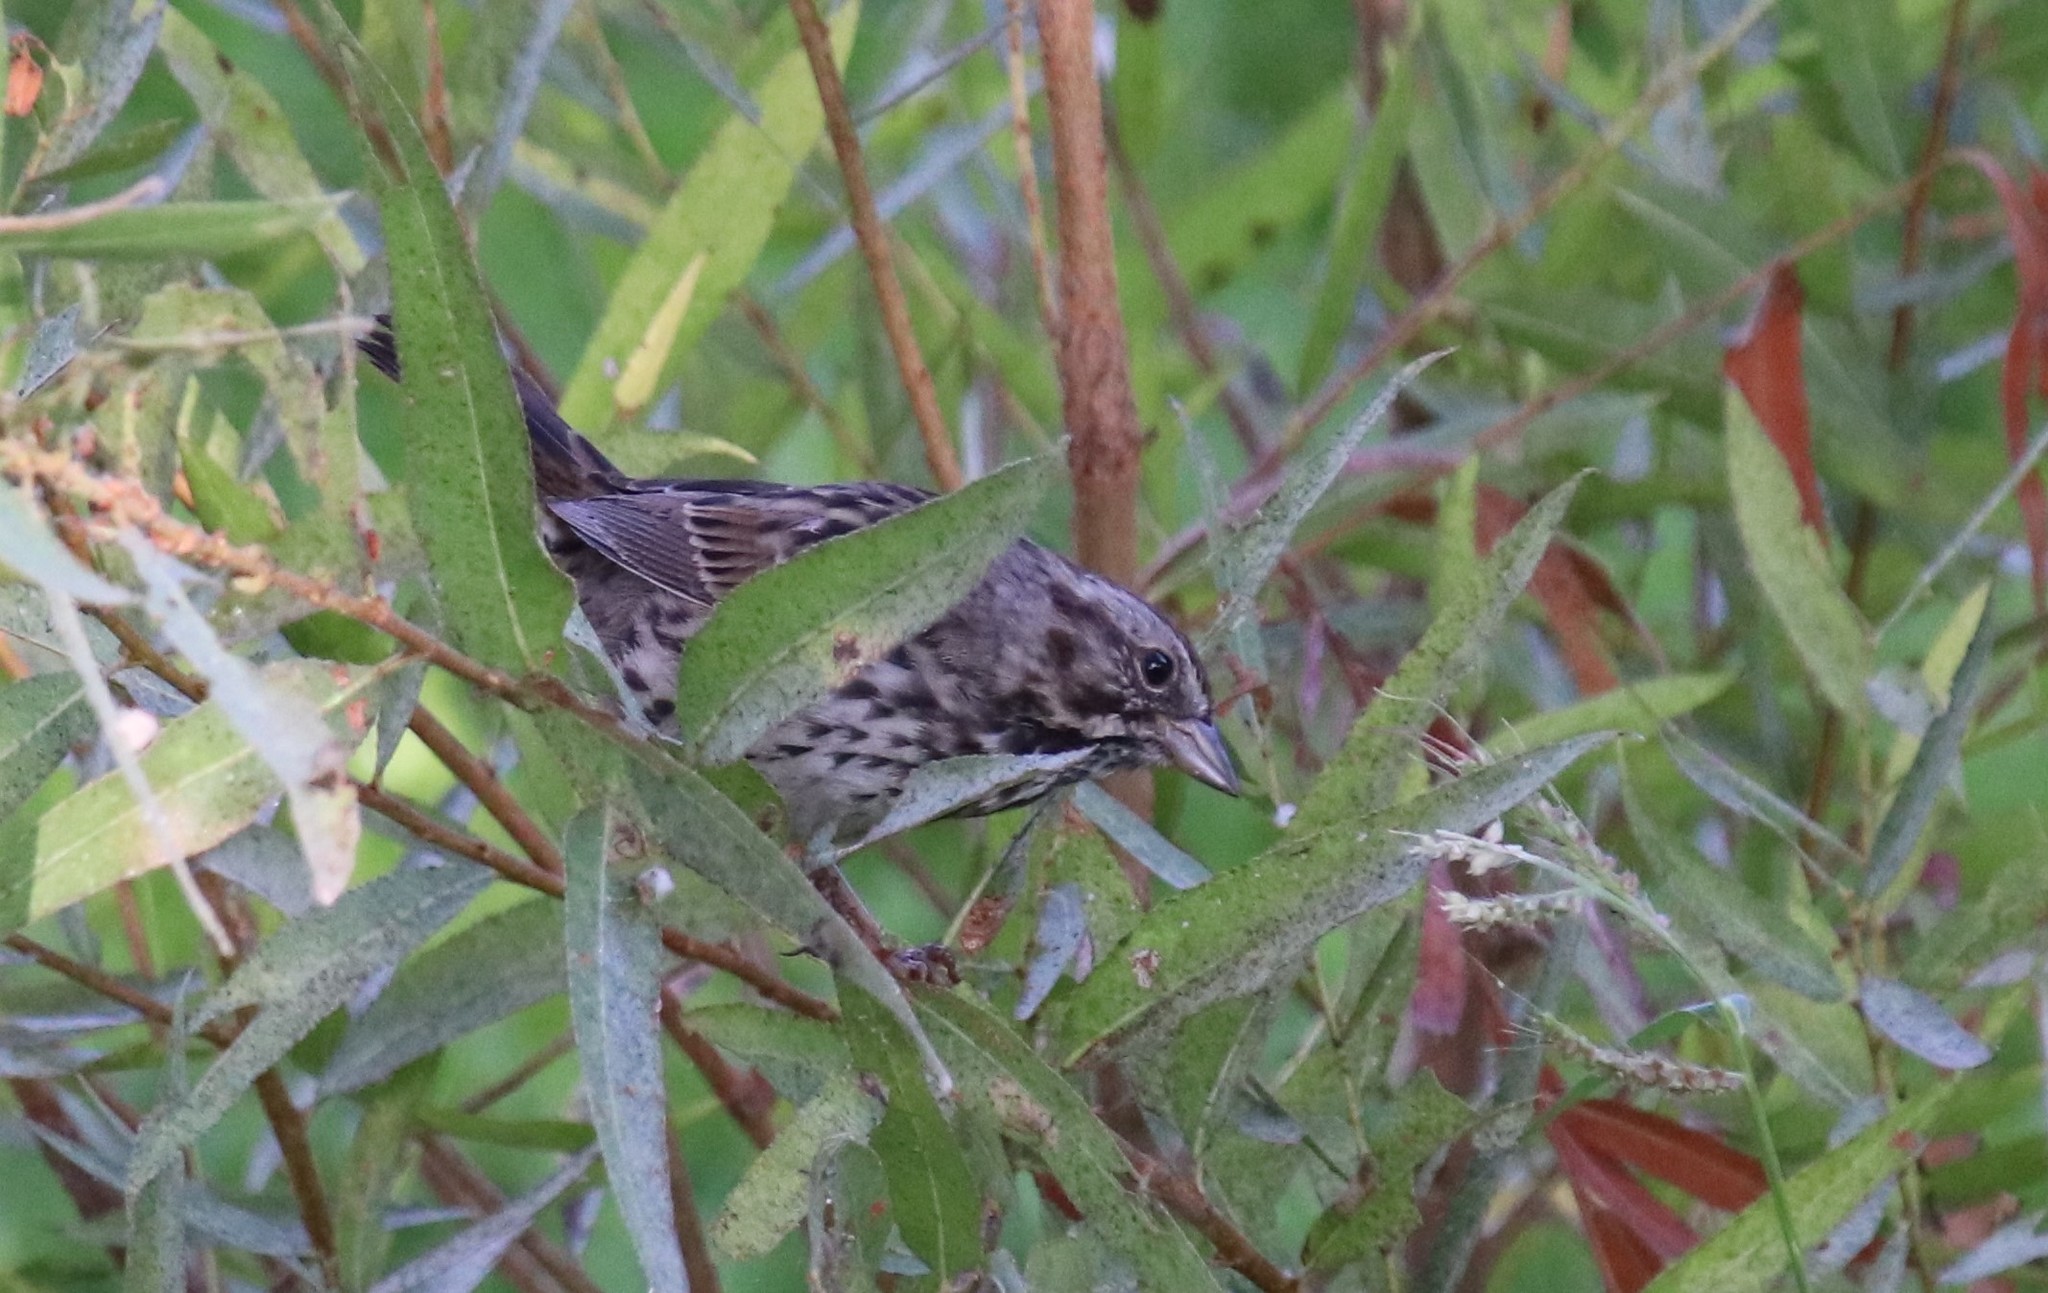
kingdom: Animalia
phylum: Chordata
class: Aves
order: Passeriformes
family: Passerellidae
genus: Melospiza
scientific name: Melospiza melodia
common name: Song sparrow
